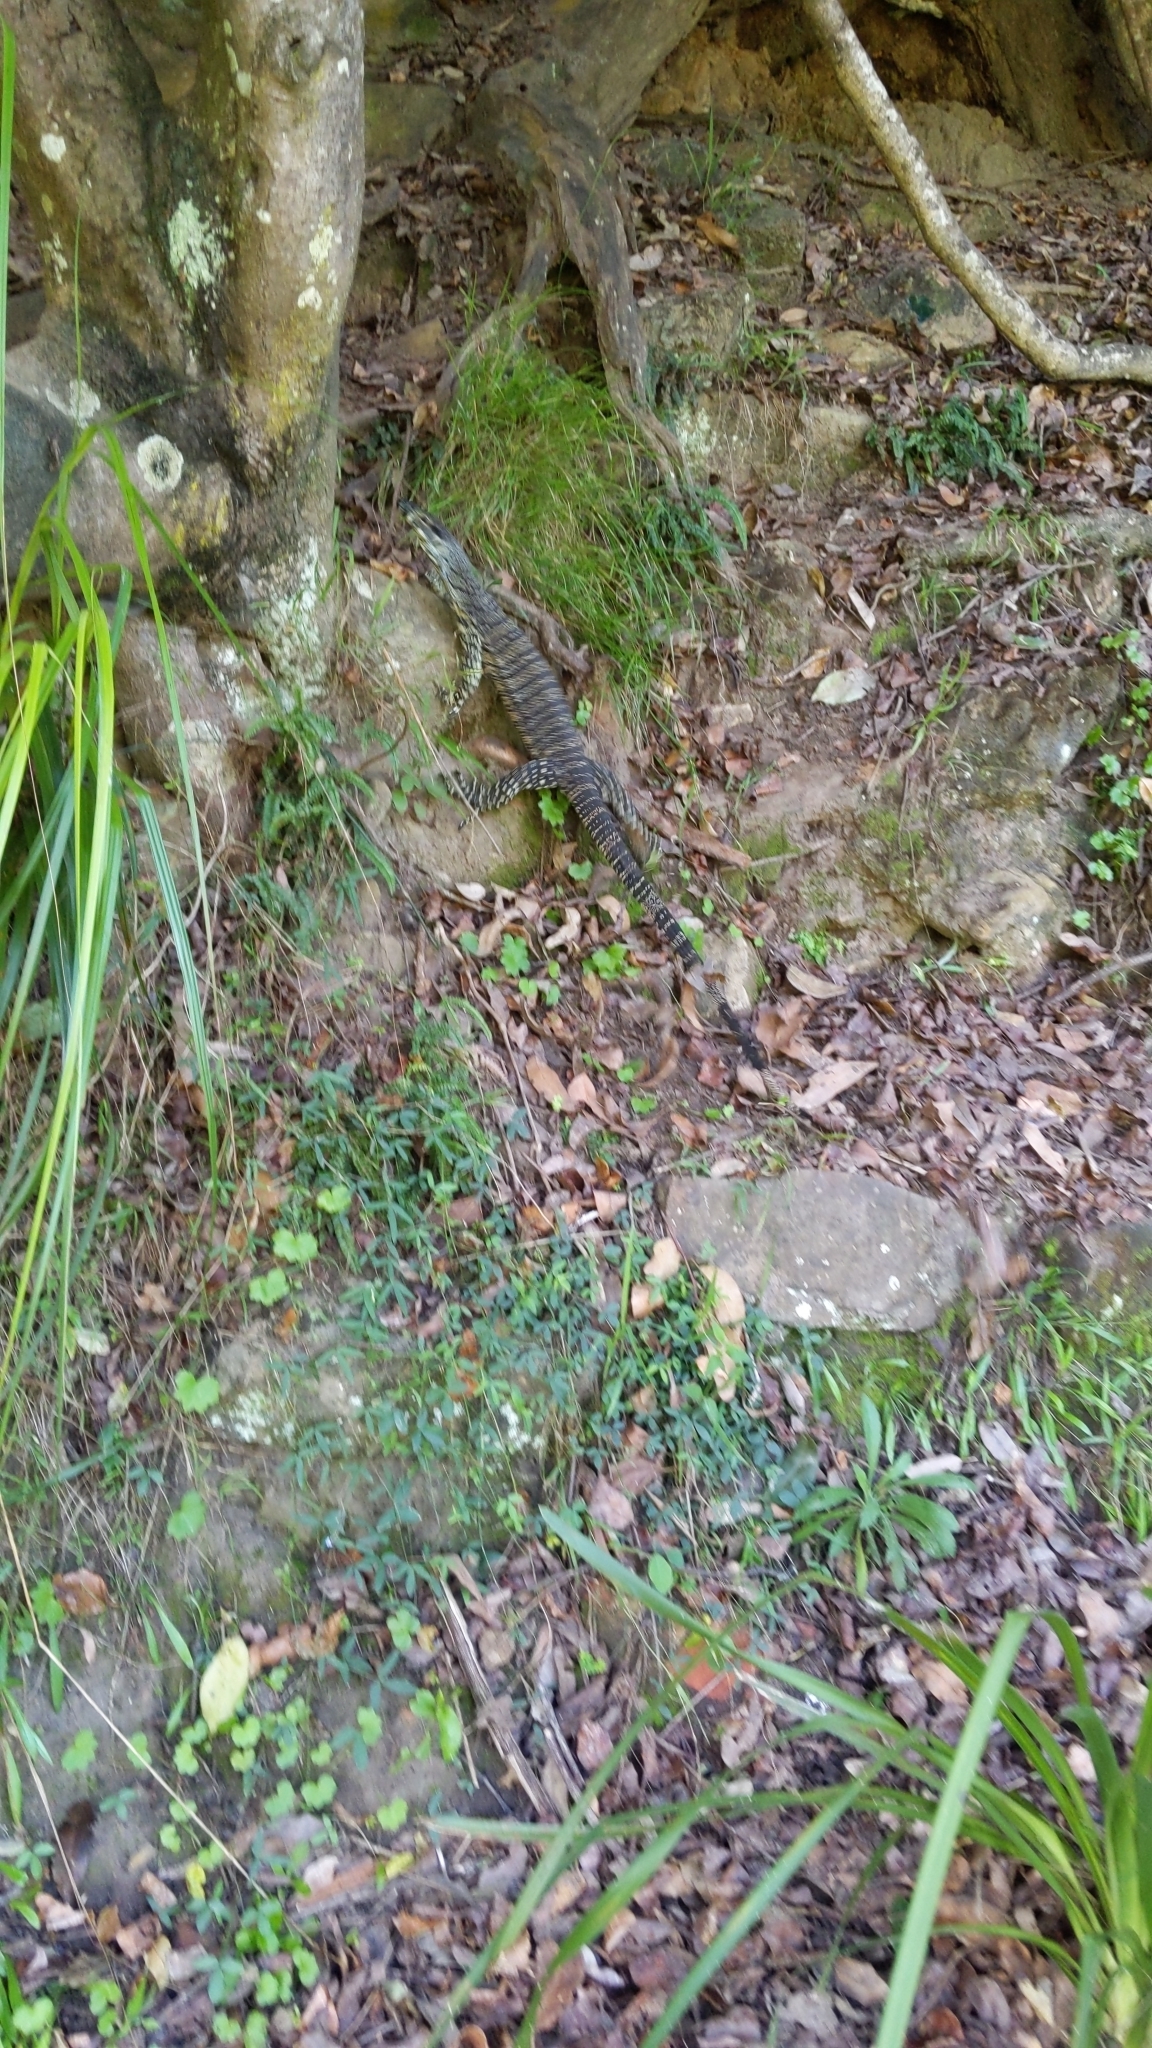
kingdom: Animalia
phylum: Chordata
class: Squamata
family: Varanidae
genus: Varanus
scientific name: Varanus varius
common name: Lace monitor
